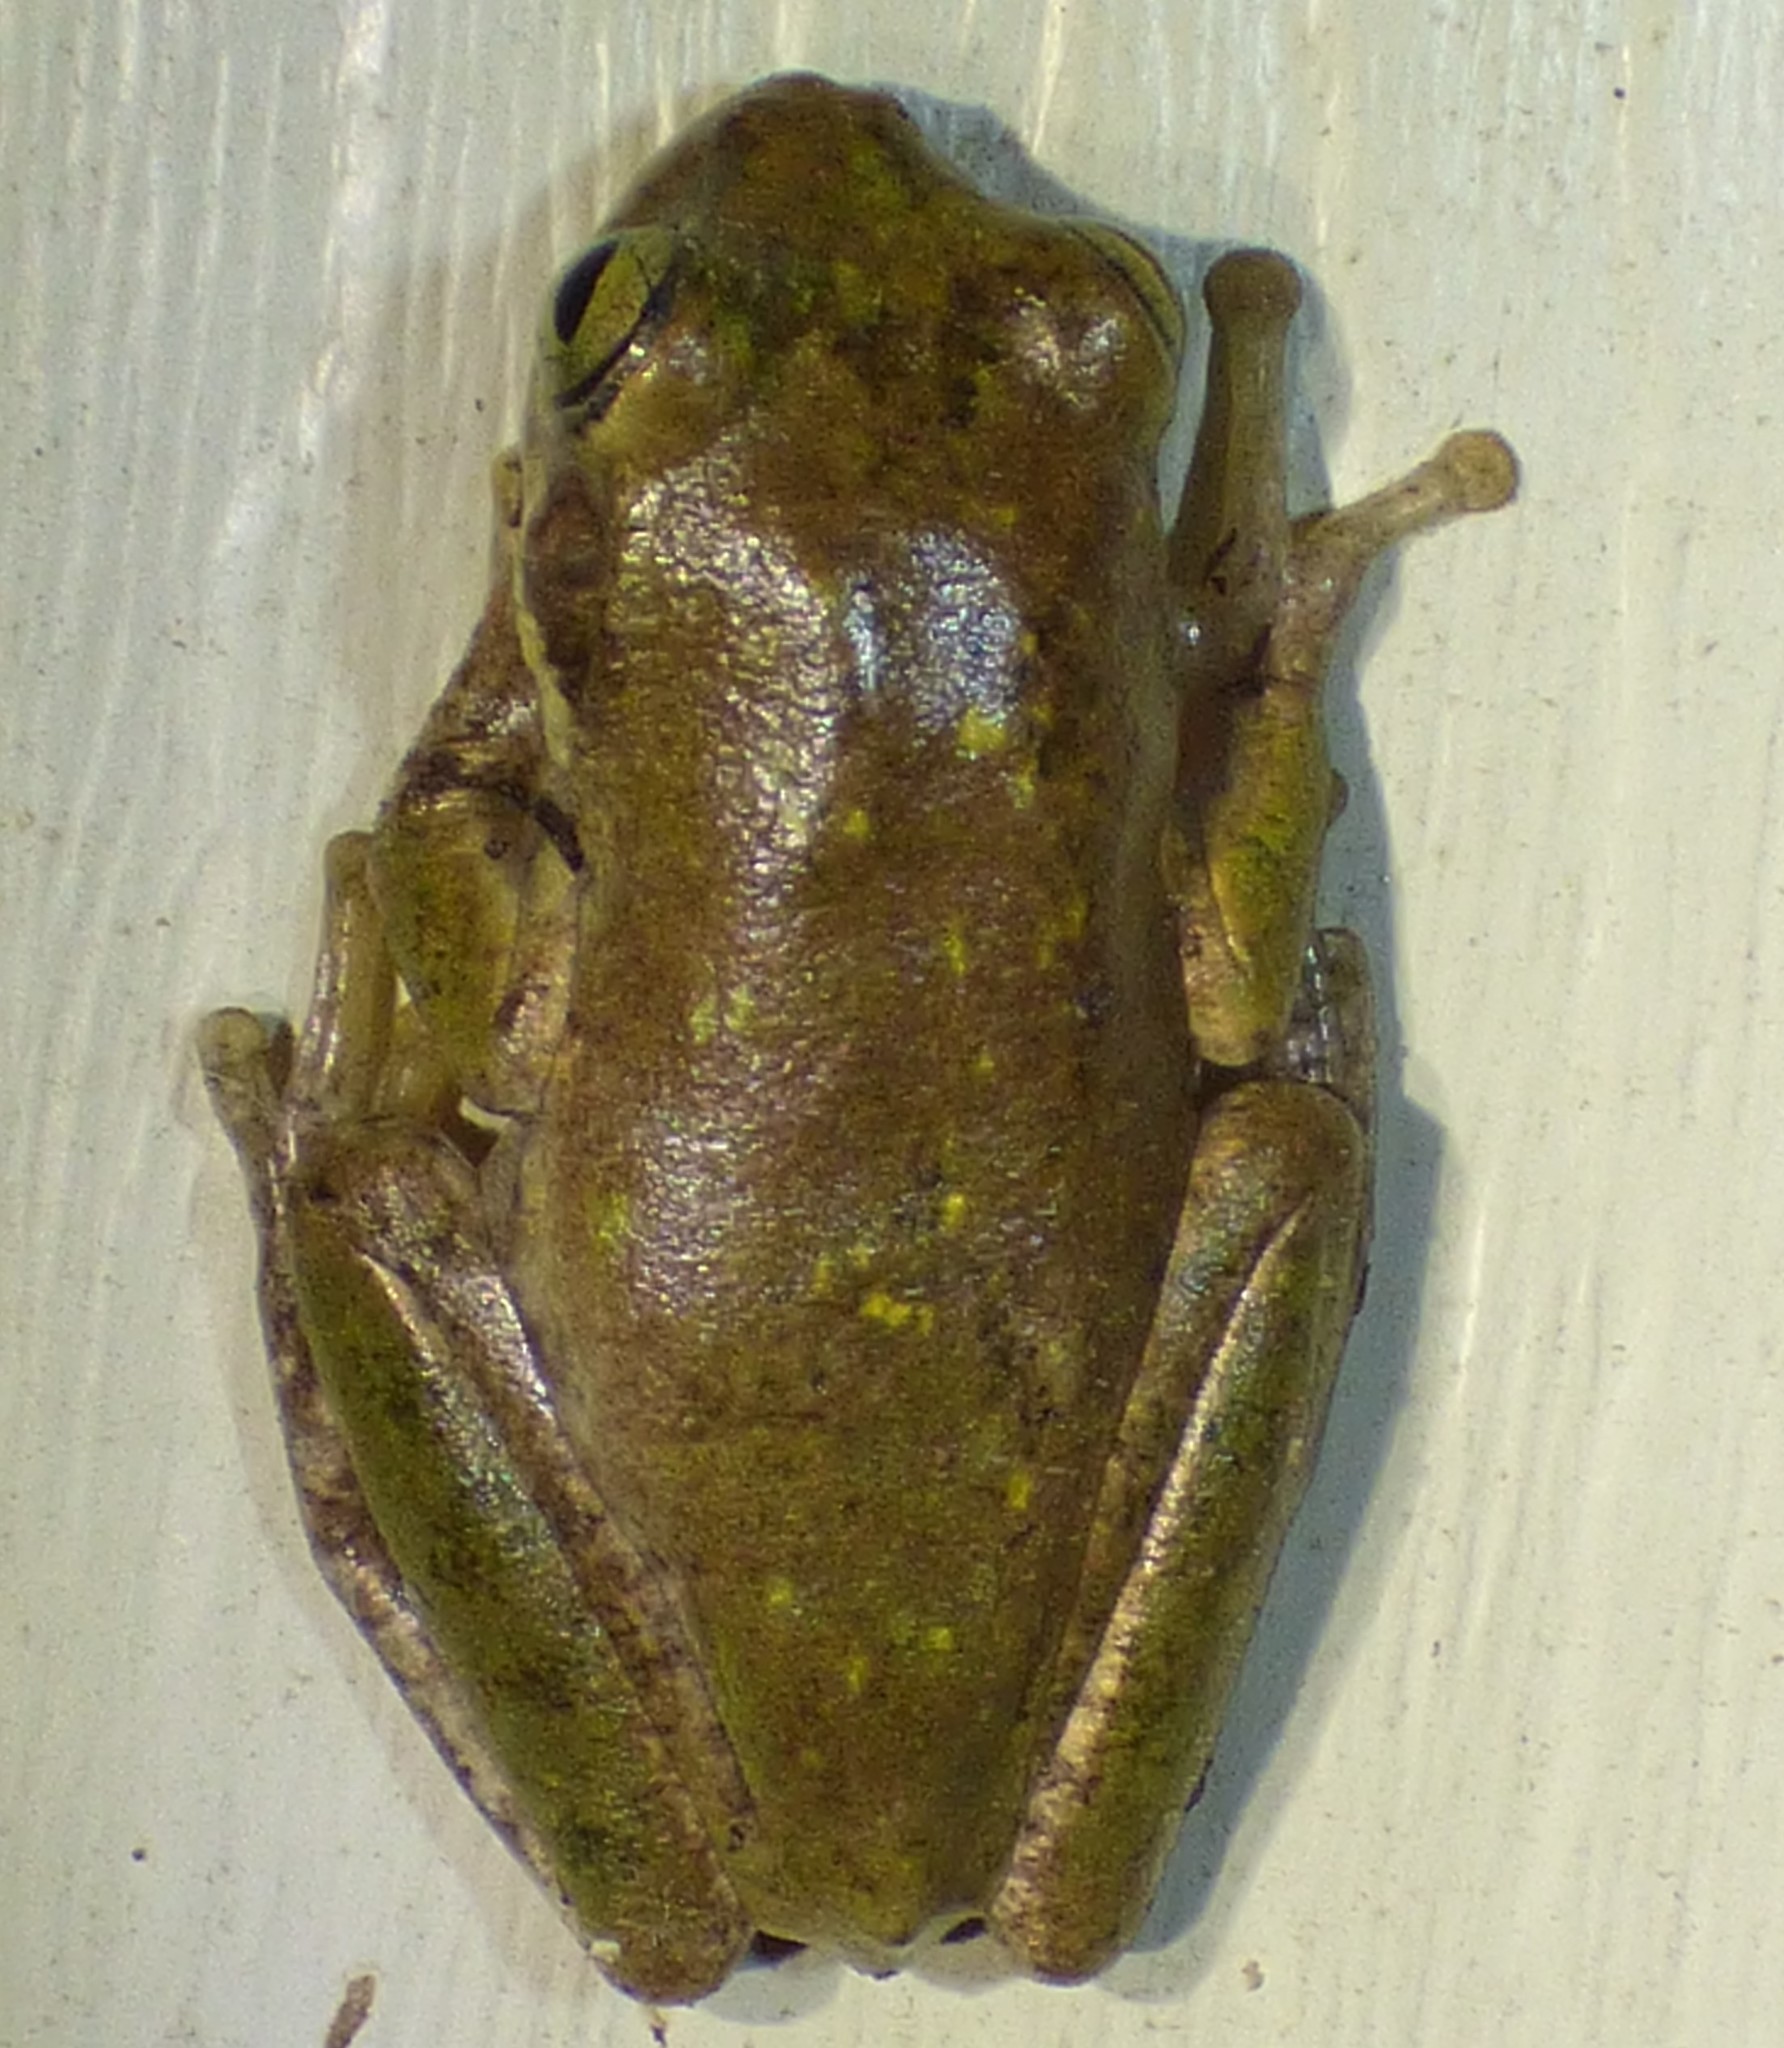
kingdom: Animalia
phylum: Chordata
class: Amphibia
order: Anura
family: Hylidae
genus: Dryophytes
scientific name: Dryophytes squirellus
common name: Squirrel treefrog
